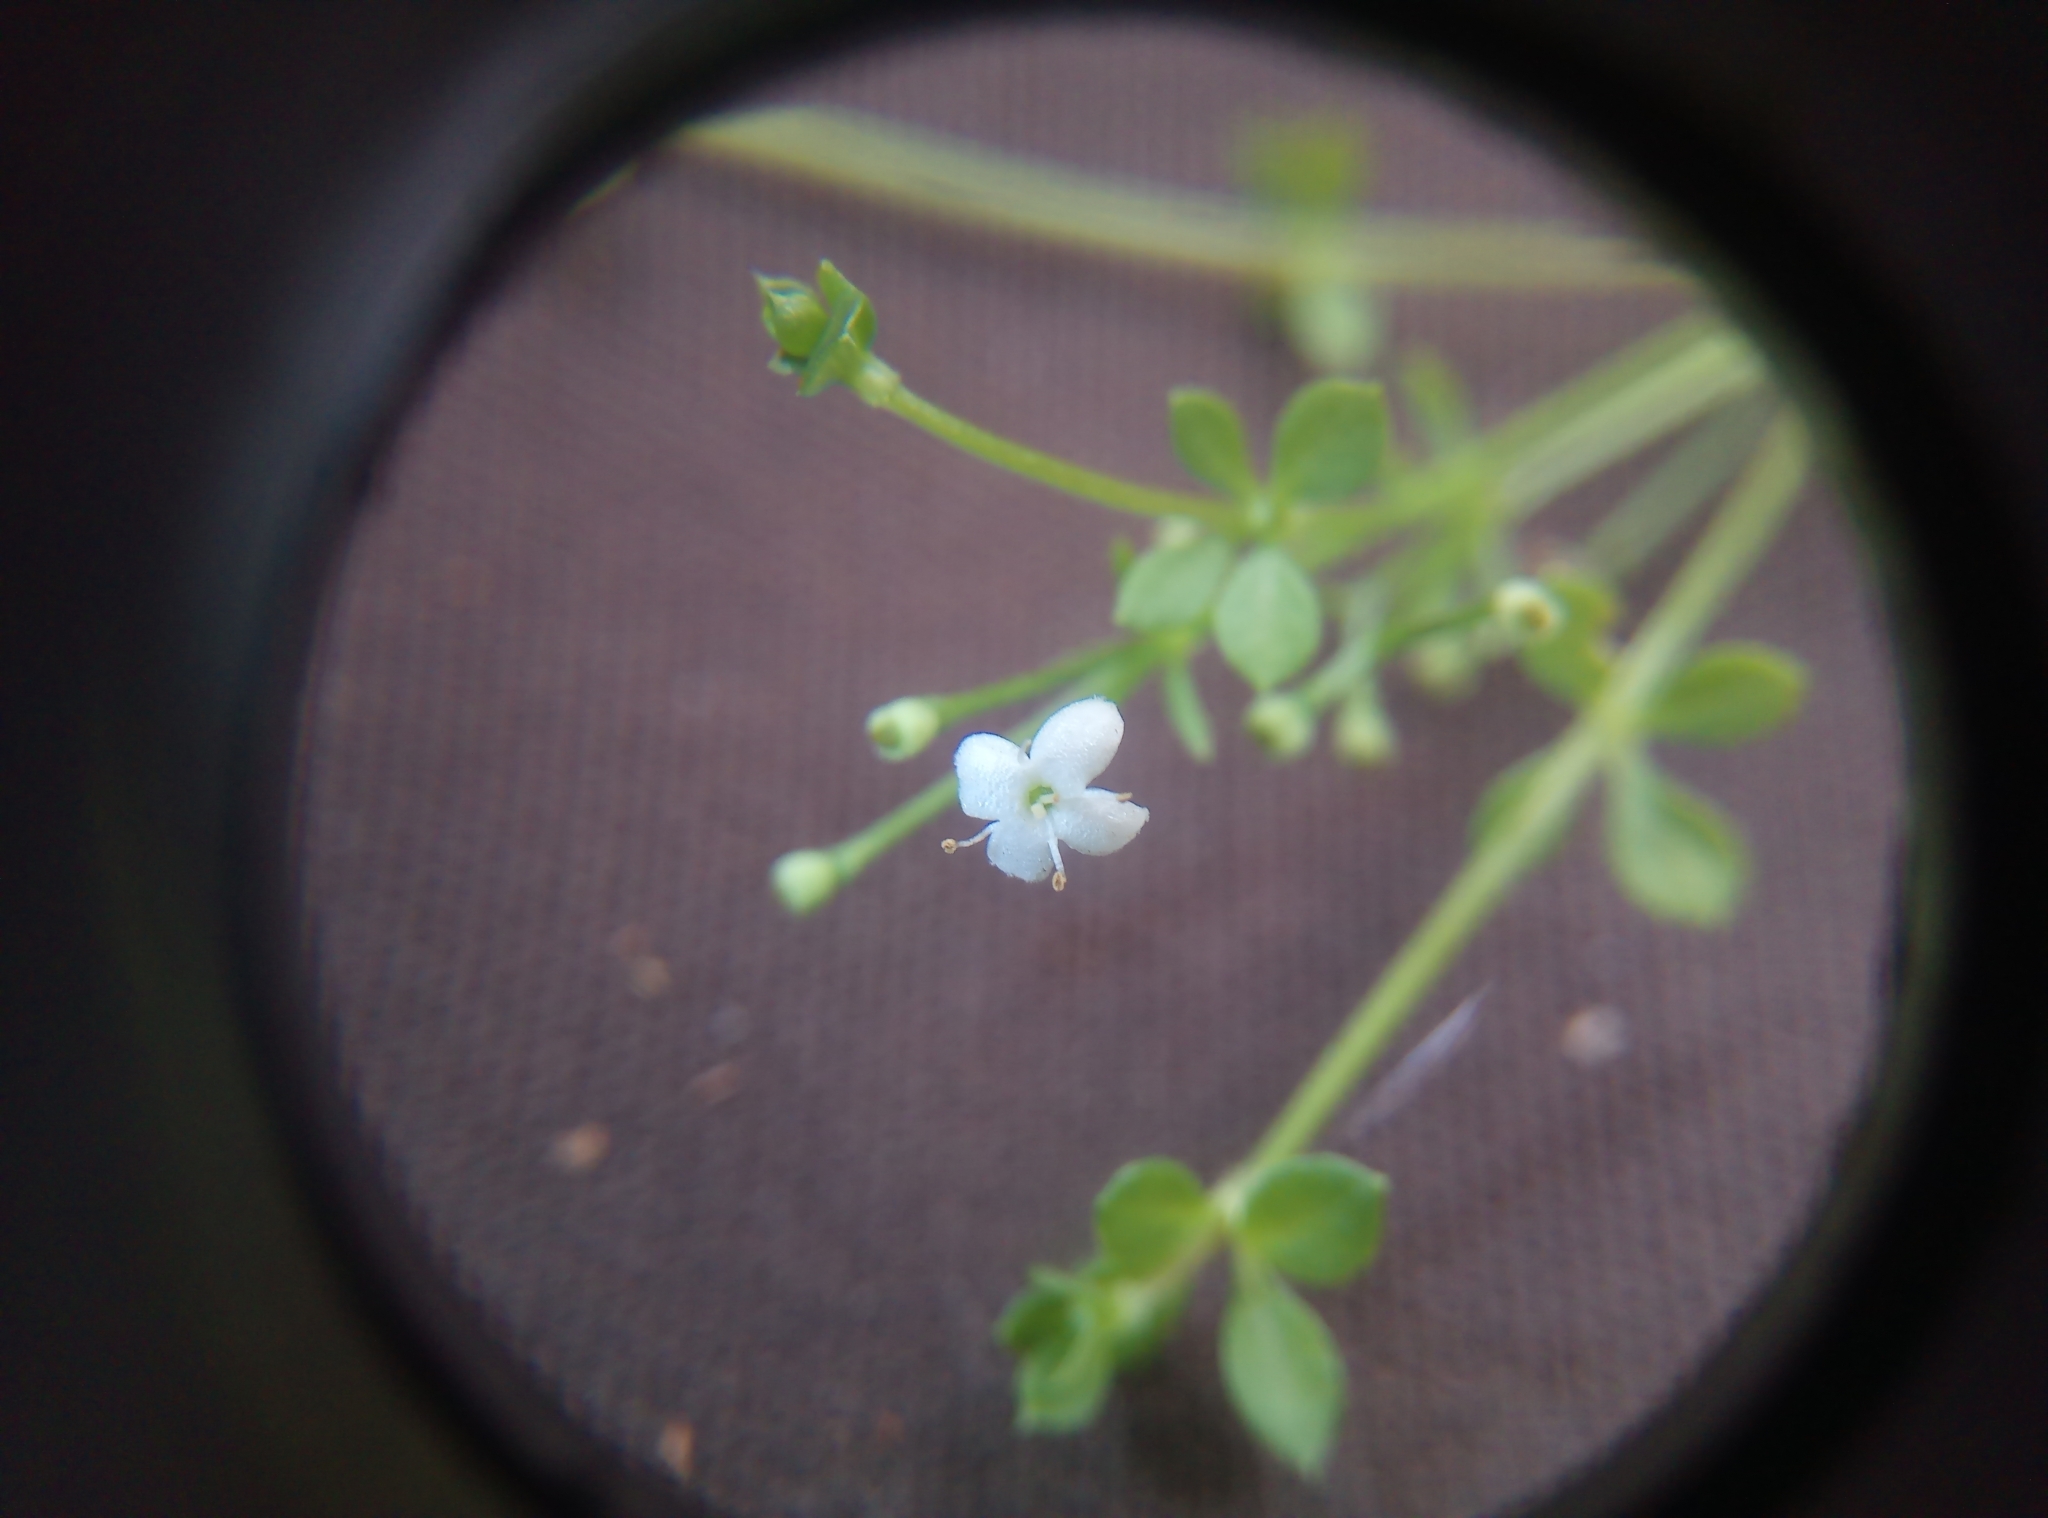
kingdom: Plantae
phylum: Tracheophyta
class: Magnoliopsida
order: Gentianales
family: Rubiaceae
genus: Galium
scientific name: Galium saxatile
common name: Heath bedstraw
